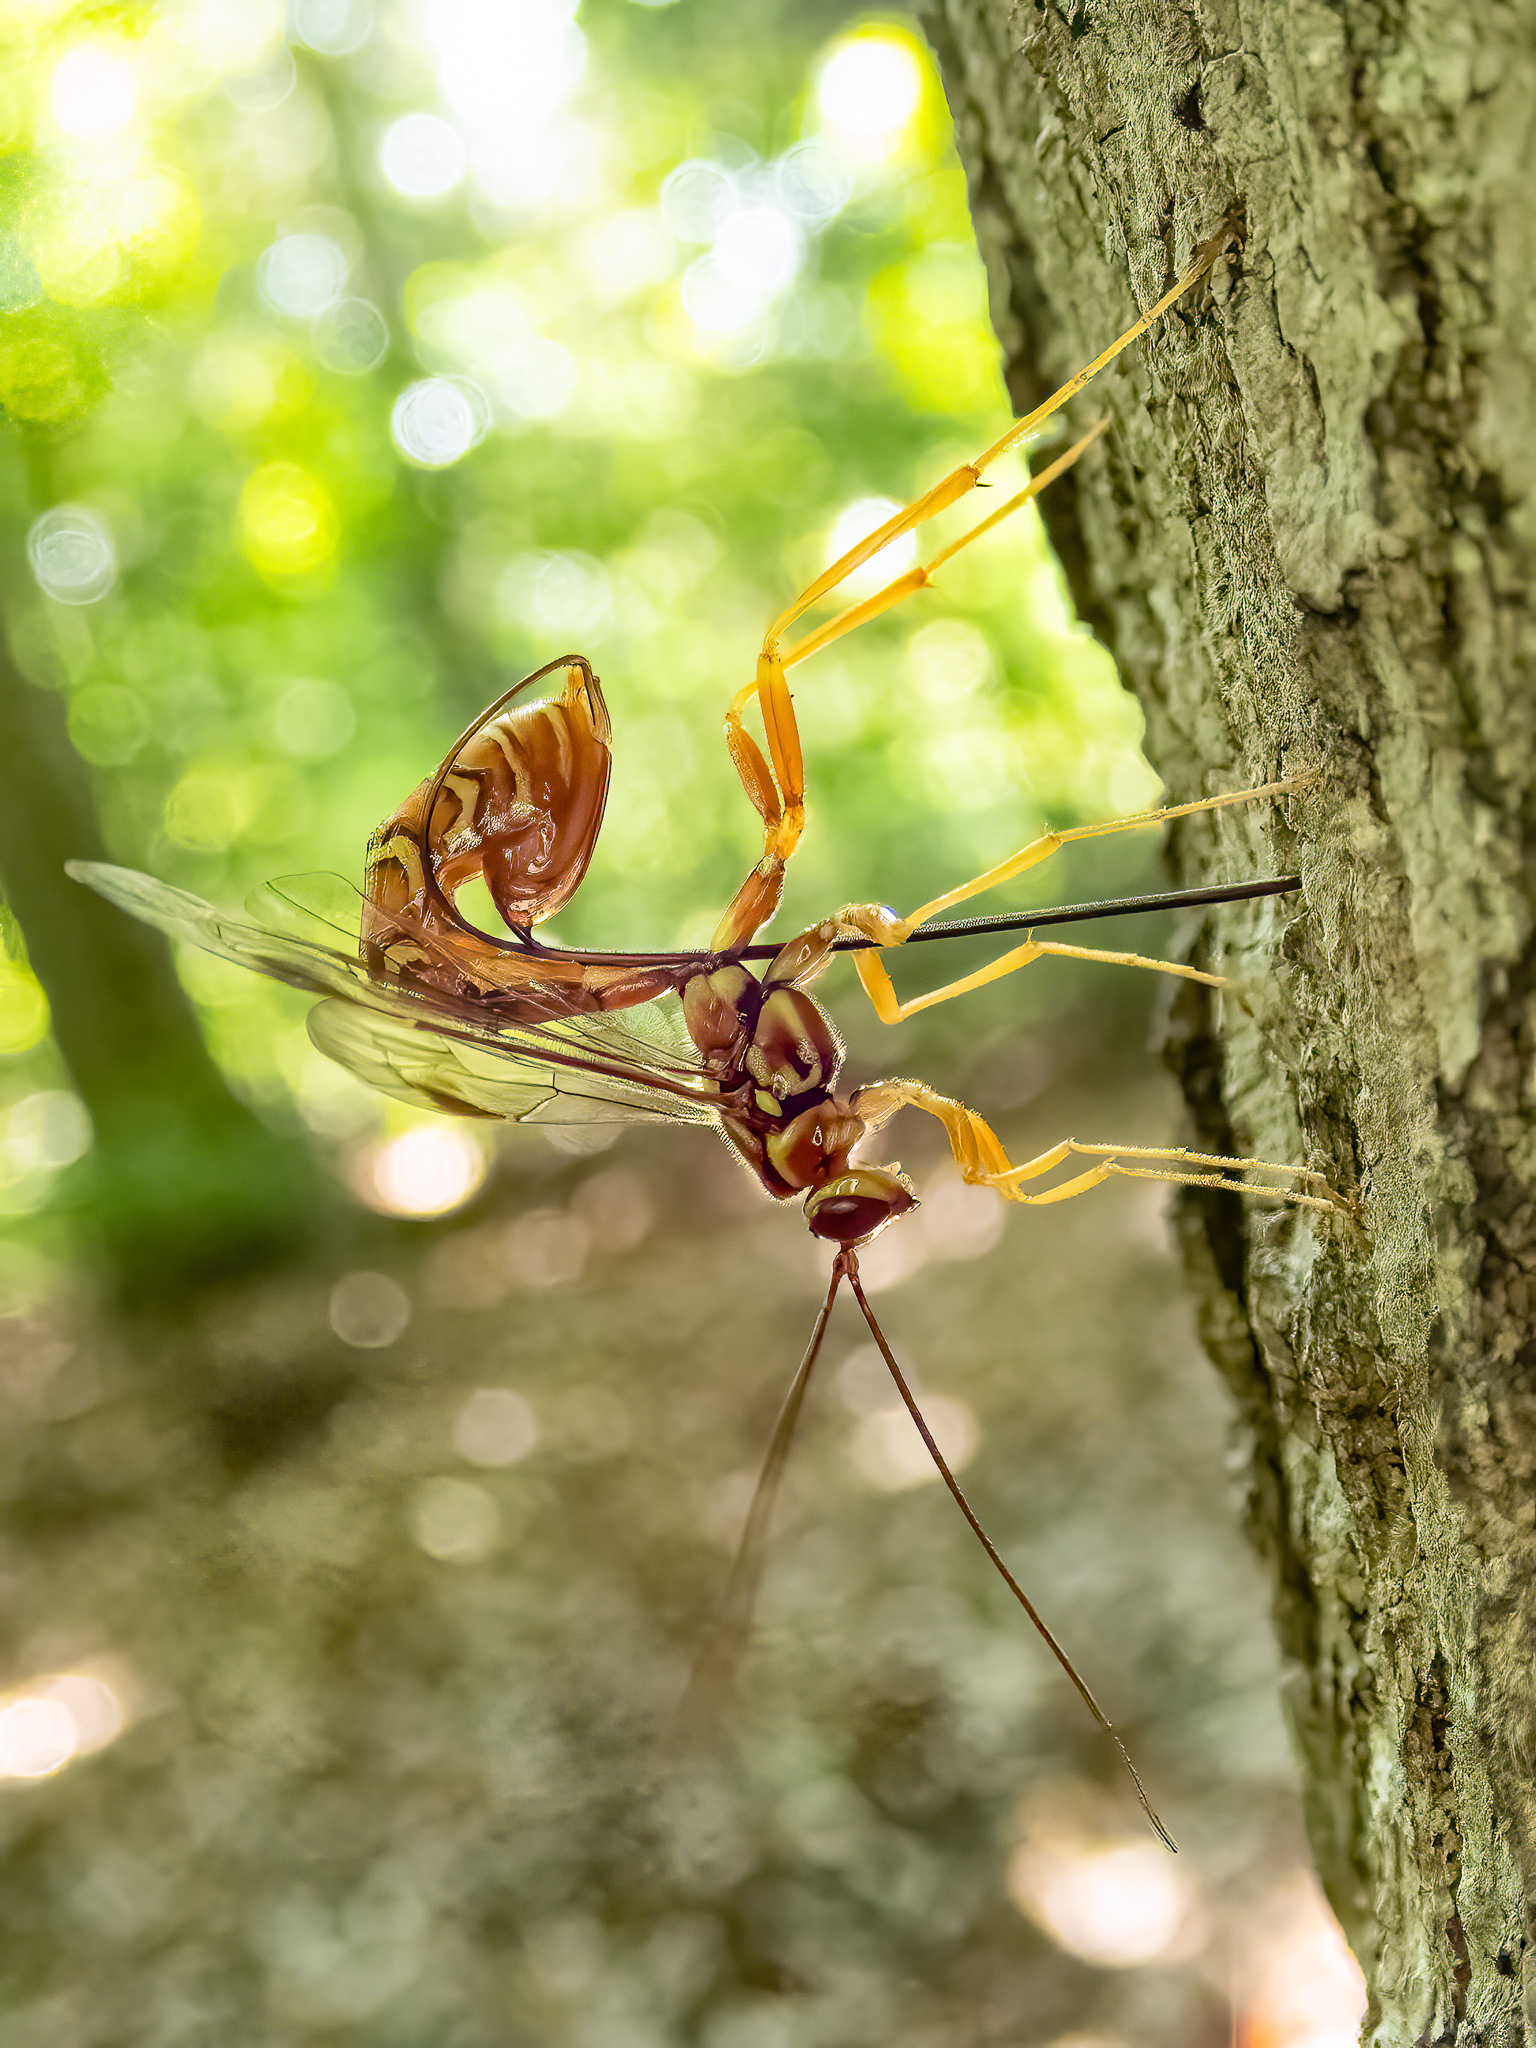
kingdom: Animalia
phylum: Arthropoda
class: Insecta
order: Hymenoptera
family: Ichneumonidae
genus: Megarhyssa
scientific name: Megarhyssa greenei
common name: Greene's giant ichneumonid wasp
